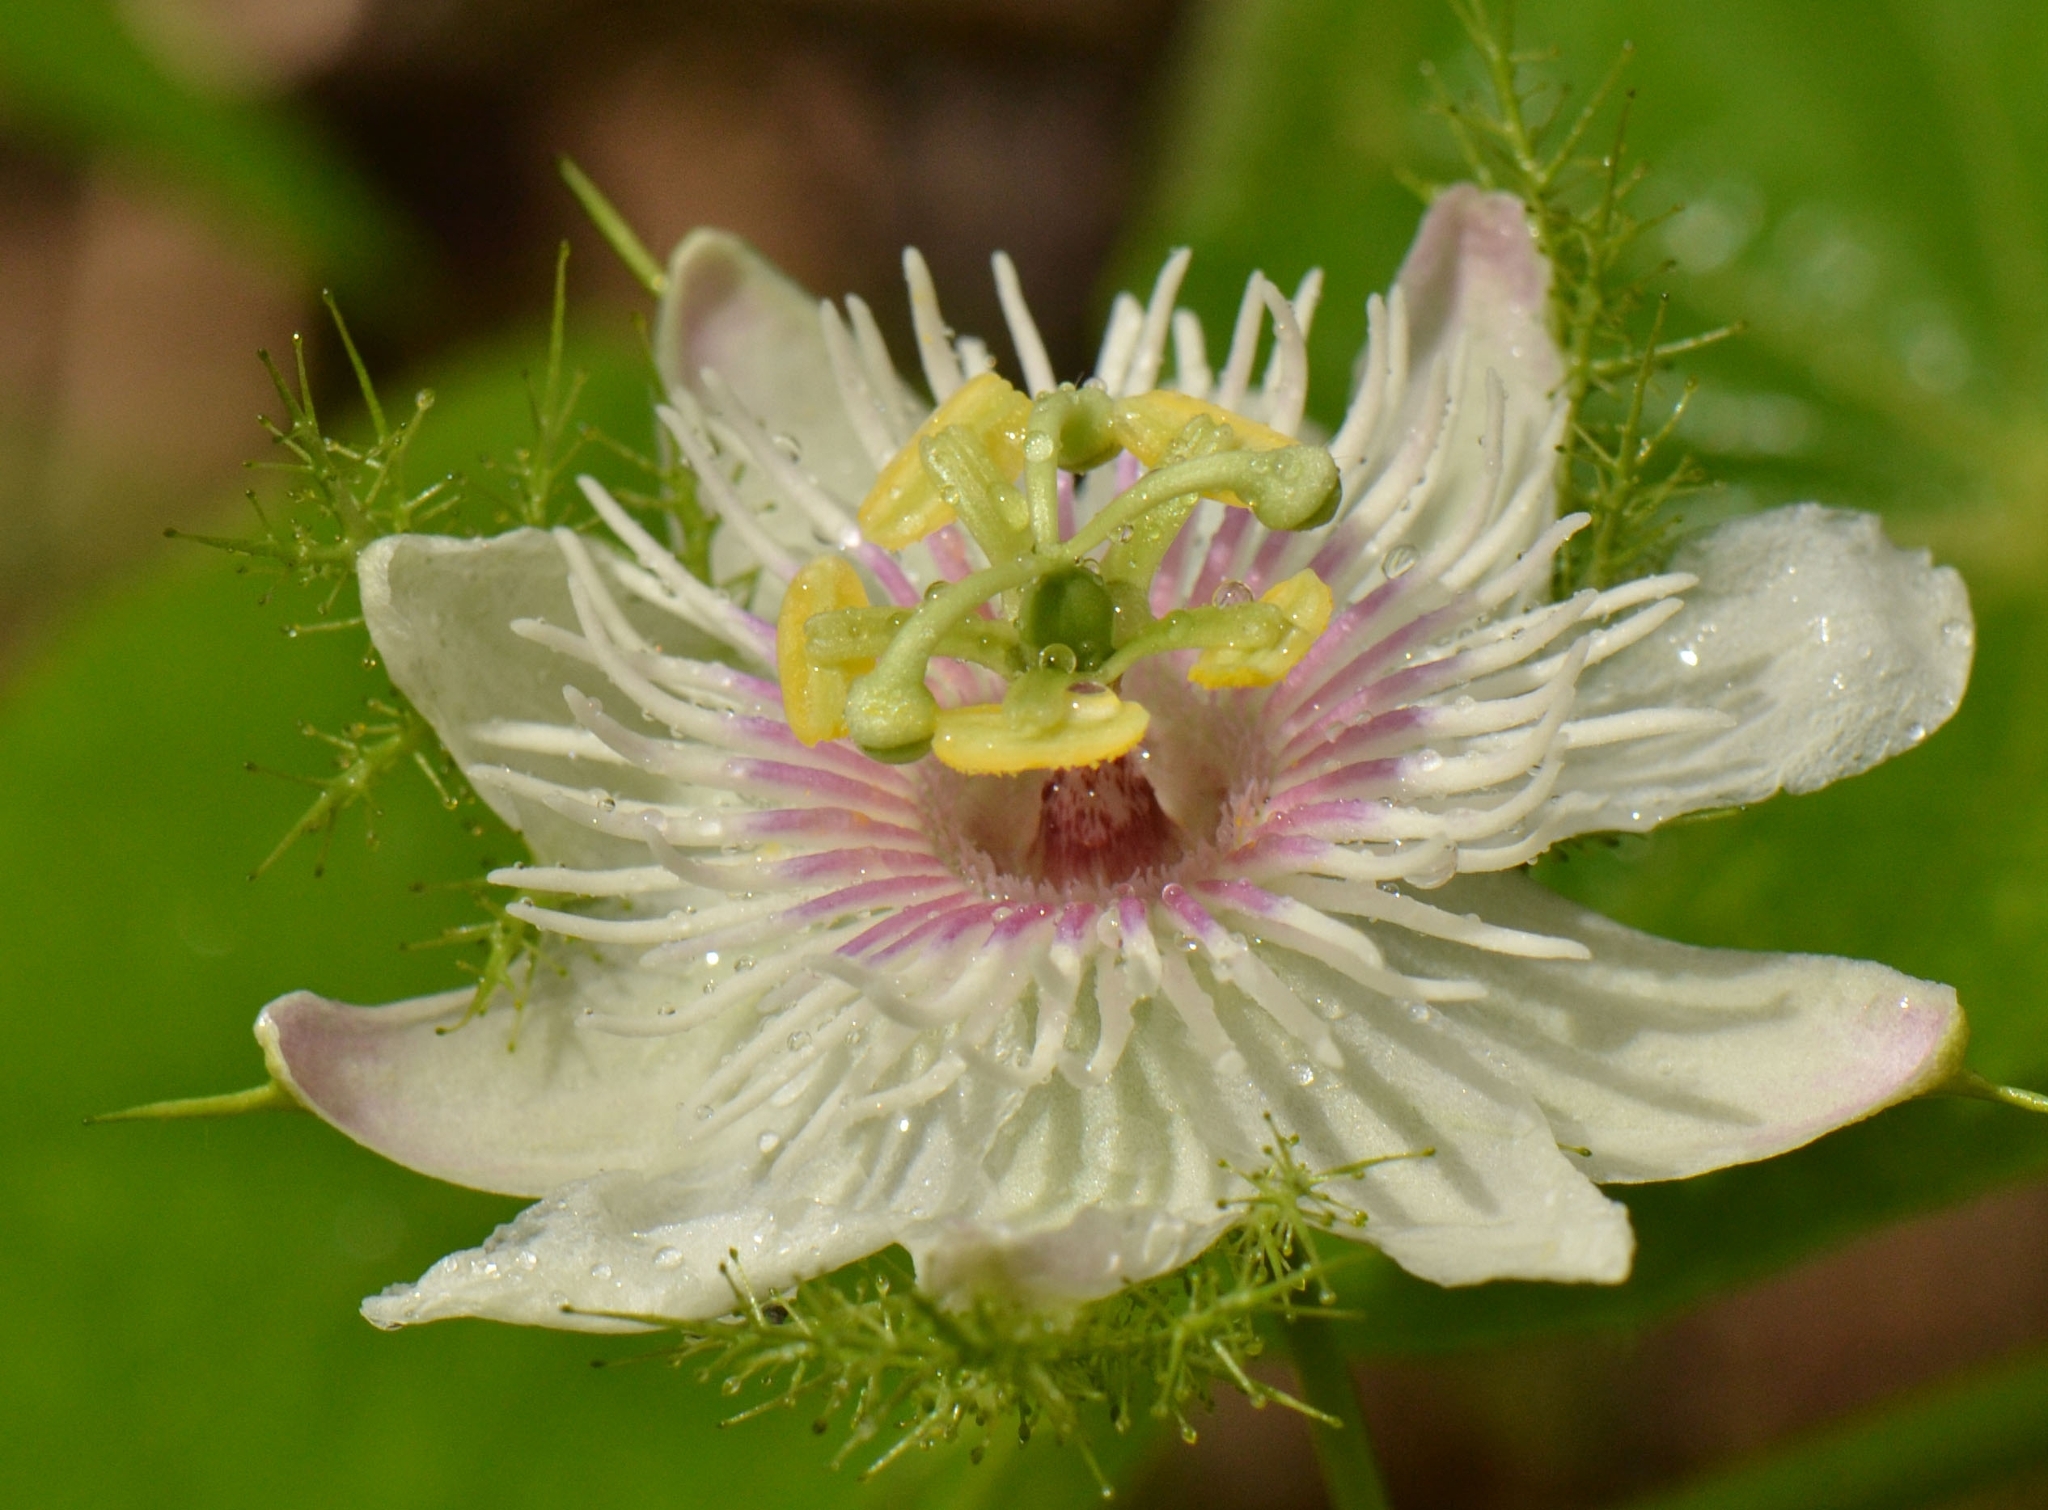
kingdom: Plantae
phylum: Tracheophyta
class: Magnoliopsida
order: Malpighiales
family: Passifloraceae
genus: Passiflora
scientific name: Passiflora vesicaria
